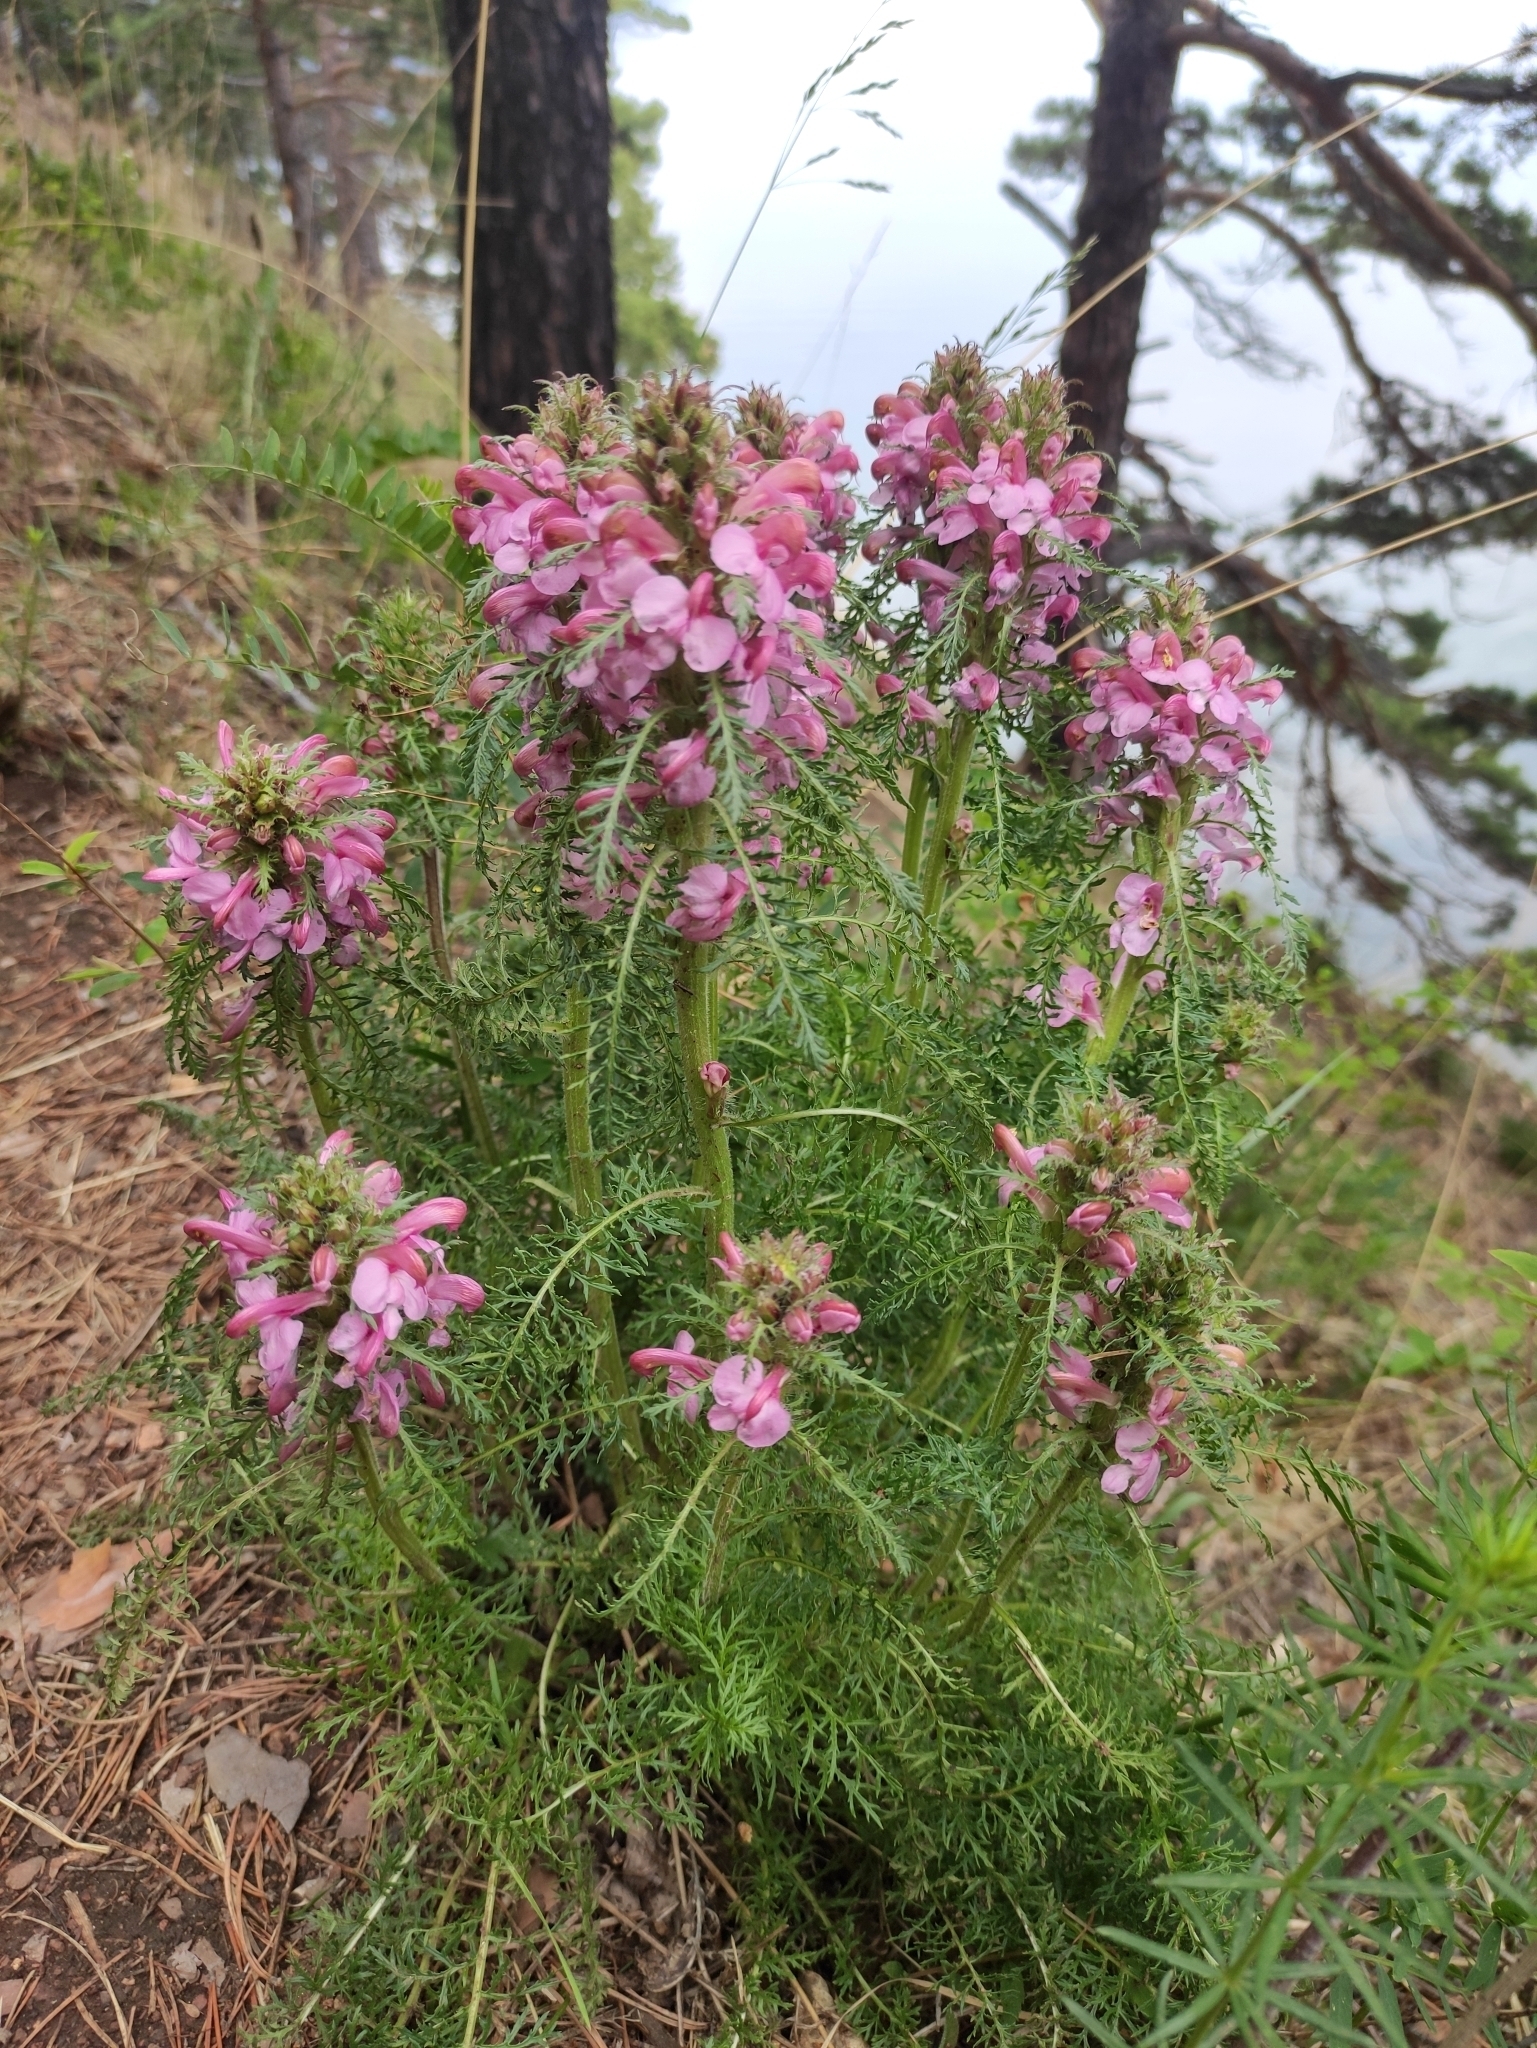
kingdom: Plantae
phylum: Tracheophyta
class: Magnoliopsida
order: Lamiales
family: Orobanchaceae
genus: Pedicularis
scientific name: Pedicularis rubens
